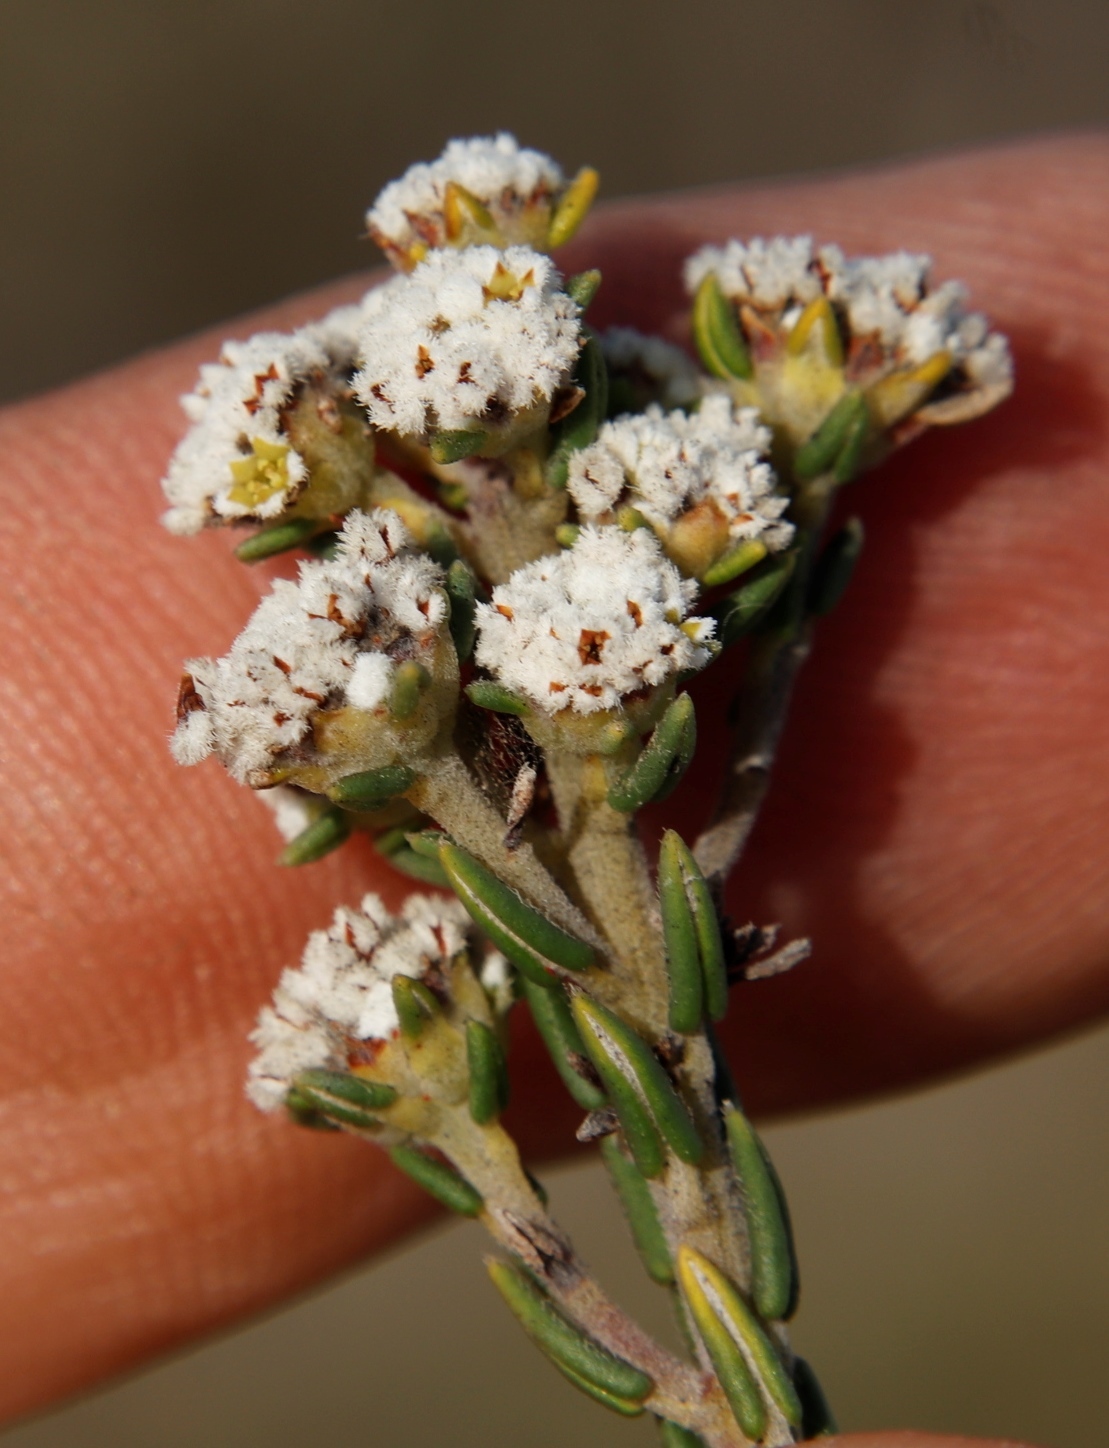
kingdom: Plantae
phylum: Tracheophyta
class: Magnoliopsida
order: Rosales
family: Rhamnaceae
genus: Phylica
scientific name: Phylica ericoides
